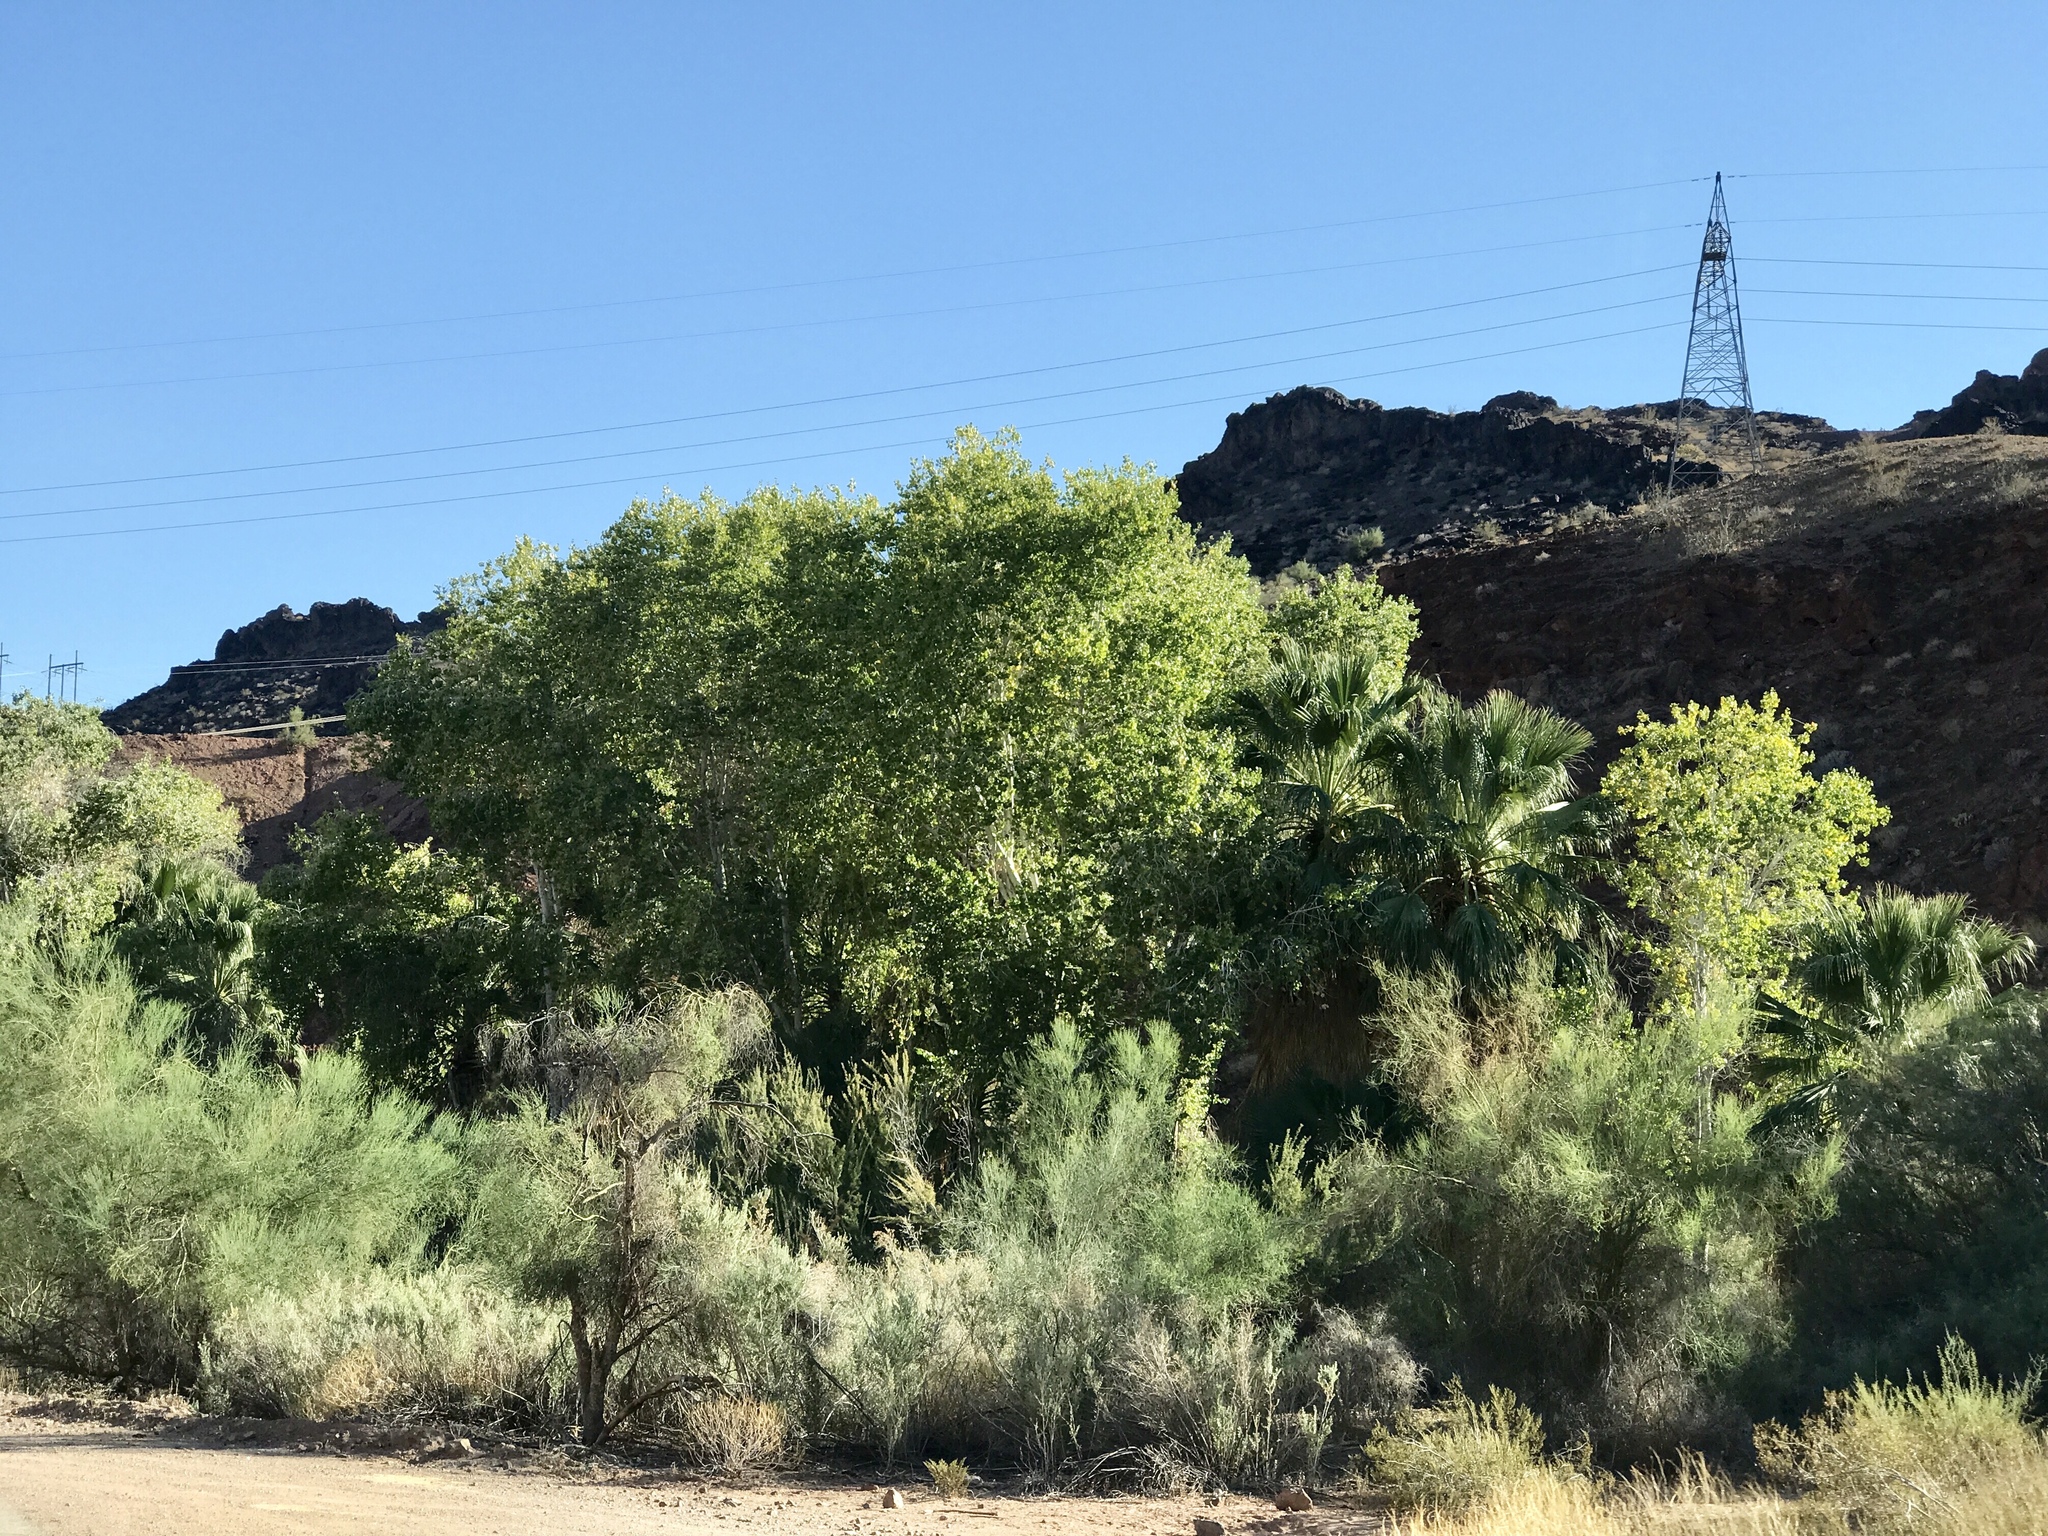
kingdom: Plantae
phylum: Tracheophyta
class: Magnoliopsida
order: Malpighiales
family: Salicaceae
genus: Populus
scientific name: Populus fremontii
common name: Fremont's cottonwood
